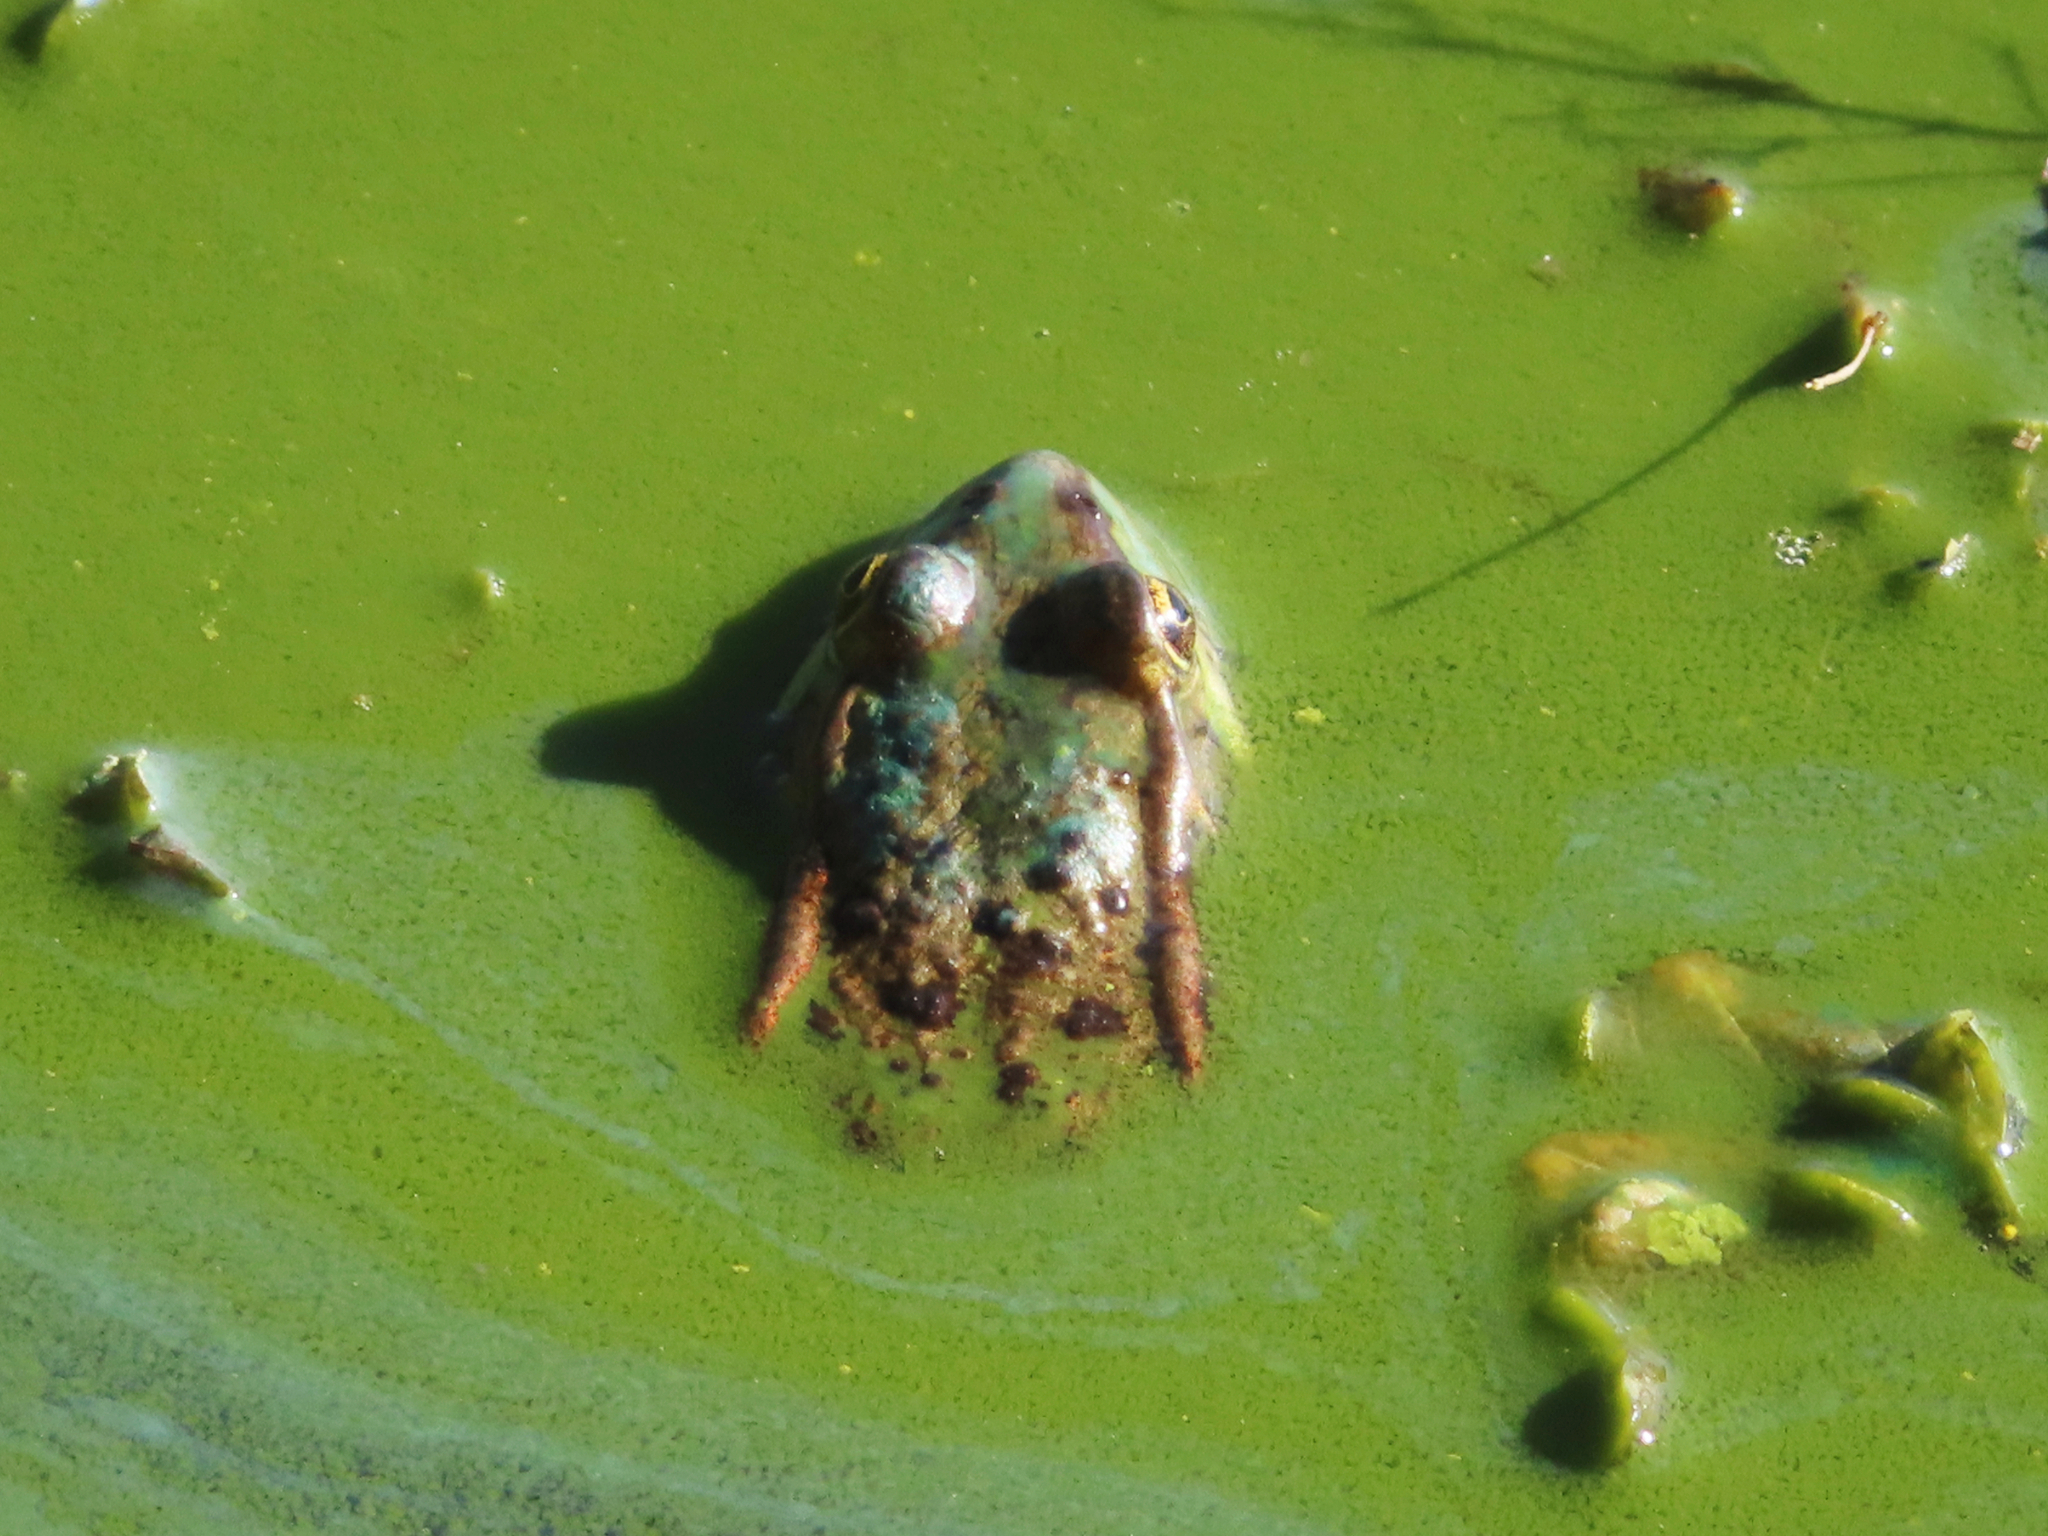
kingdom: Animalia
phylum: Chordata
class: Amphibia
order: Anura
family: Ranidae
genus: Pelophylax
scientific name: Pelophylax ridibundus
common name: Marsh frog
